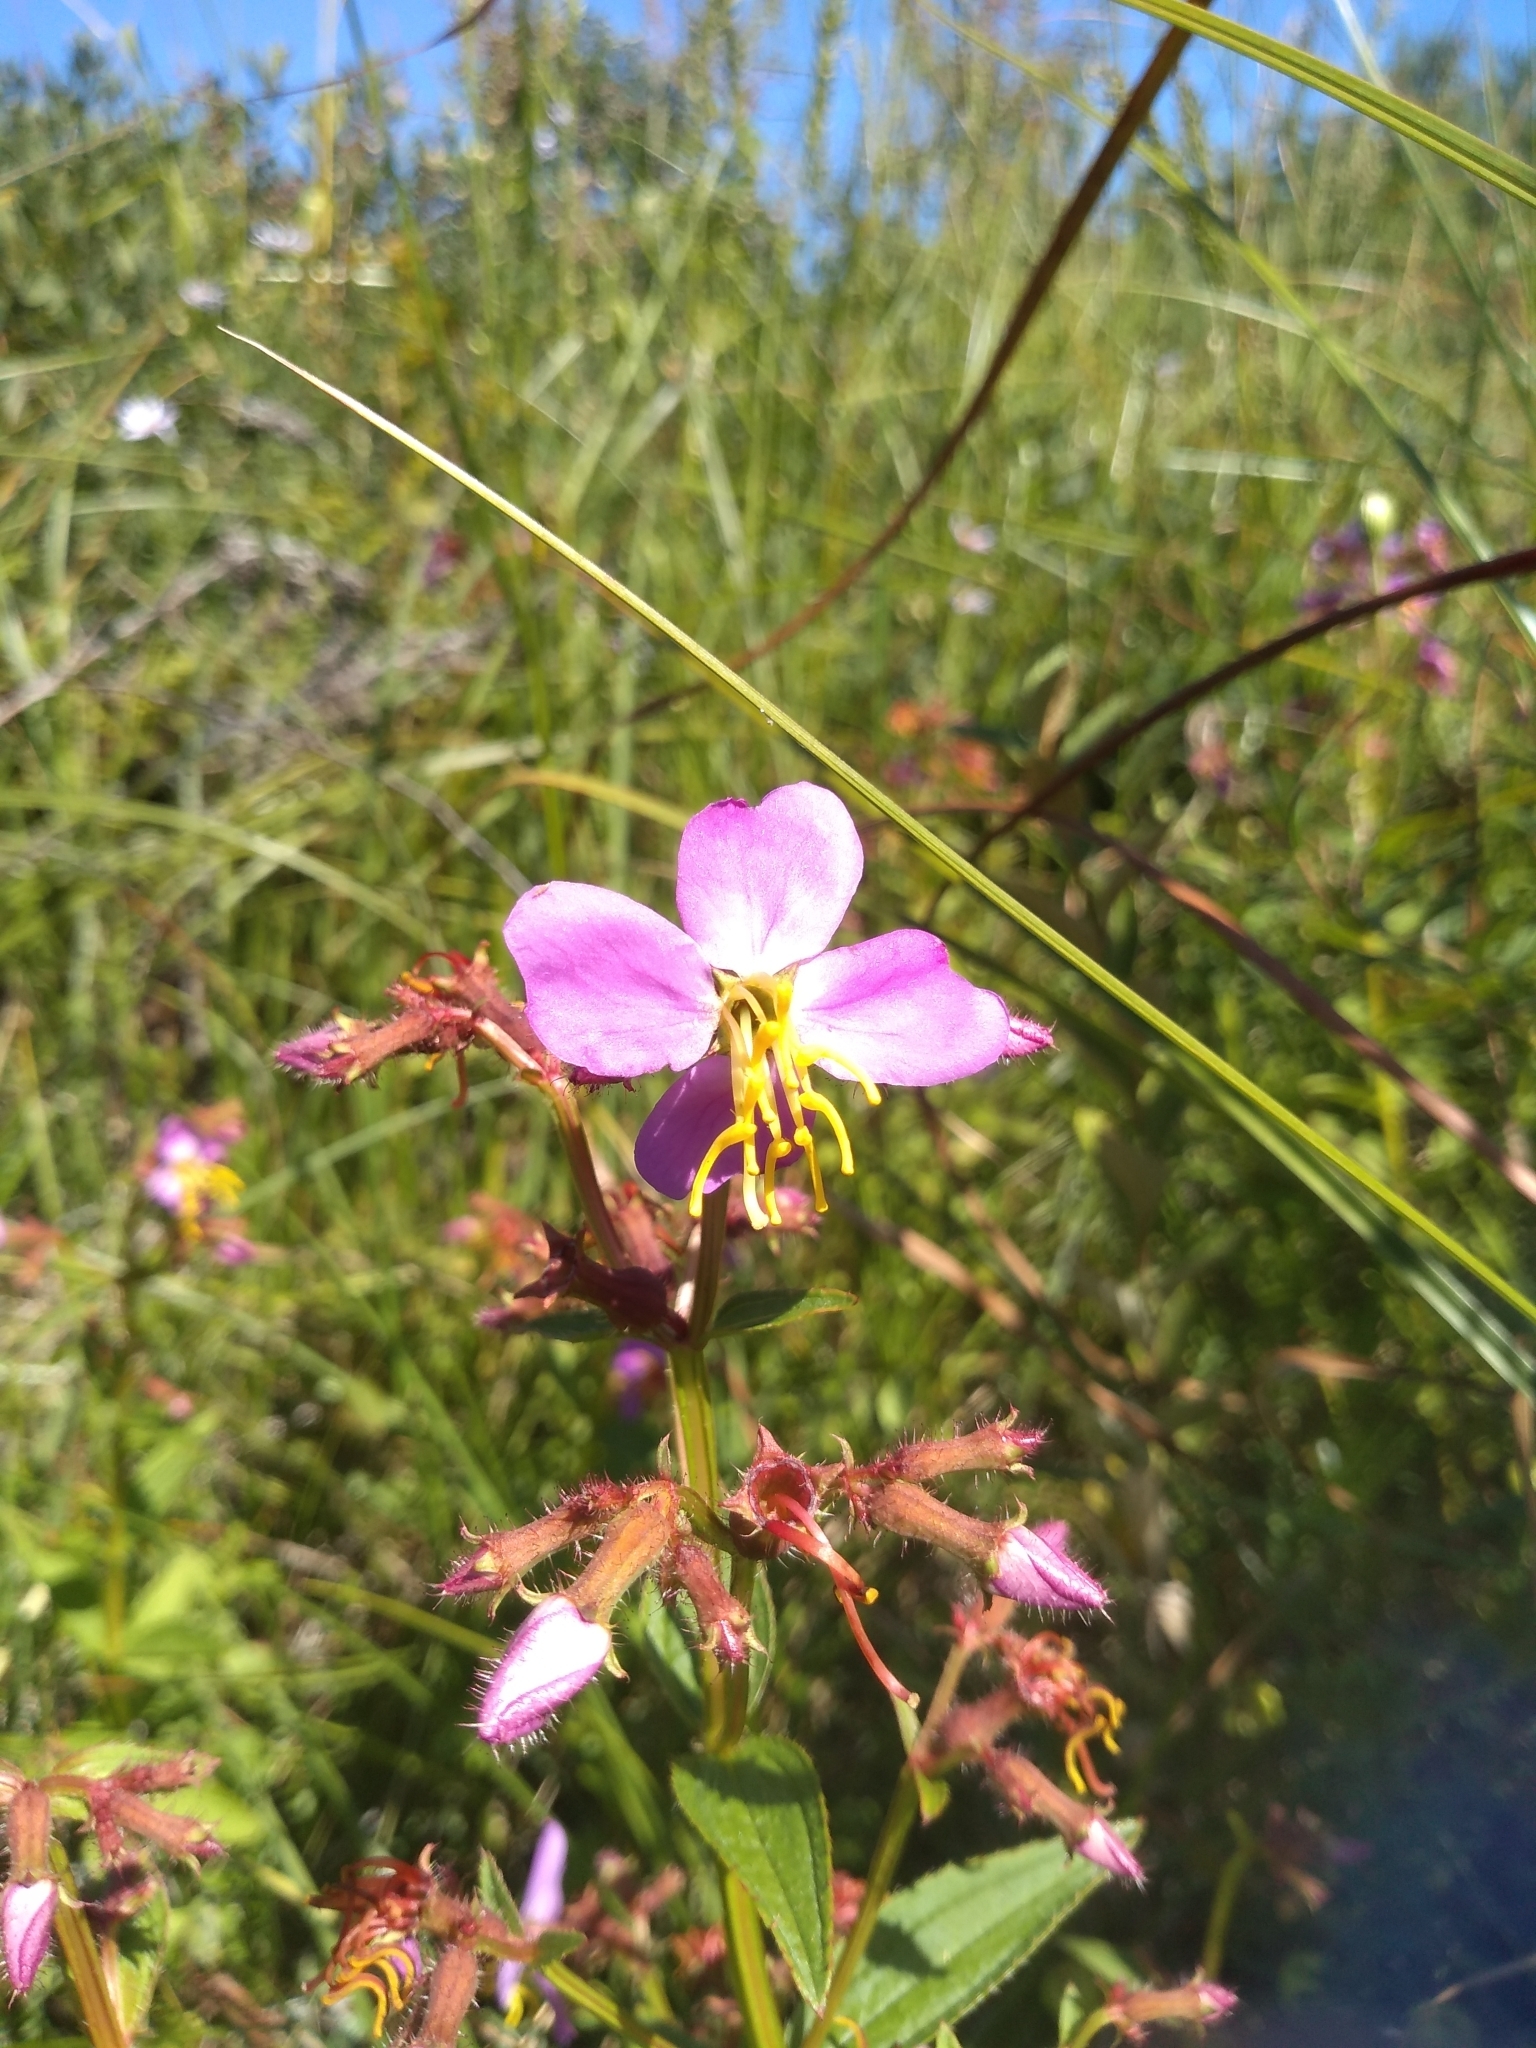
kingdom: Plantae
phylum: Tracheophyta
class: Magnoliopsida
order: Myrtales
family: Melastomataceae
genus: Rhexia
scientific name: Rhexia virginica
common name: Common meadow beauty
